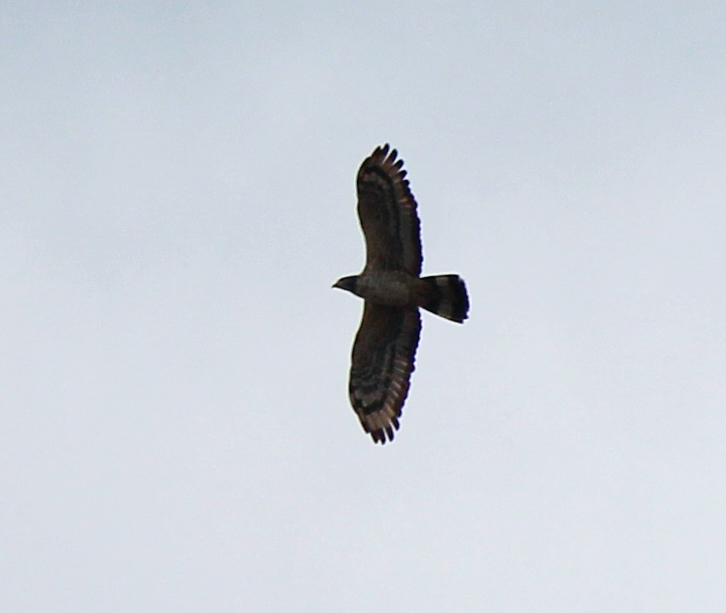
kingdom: Animalia
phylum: Chordata
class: Aves
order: Accipitriformes
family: Accipitridae
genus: Pernis
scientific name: Pernis ptilorhynchus
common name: Crested honey buzzard
